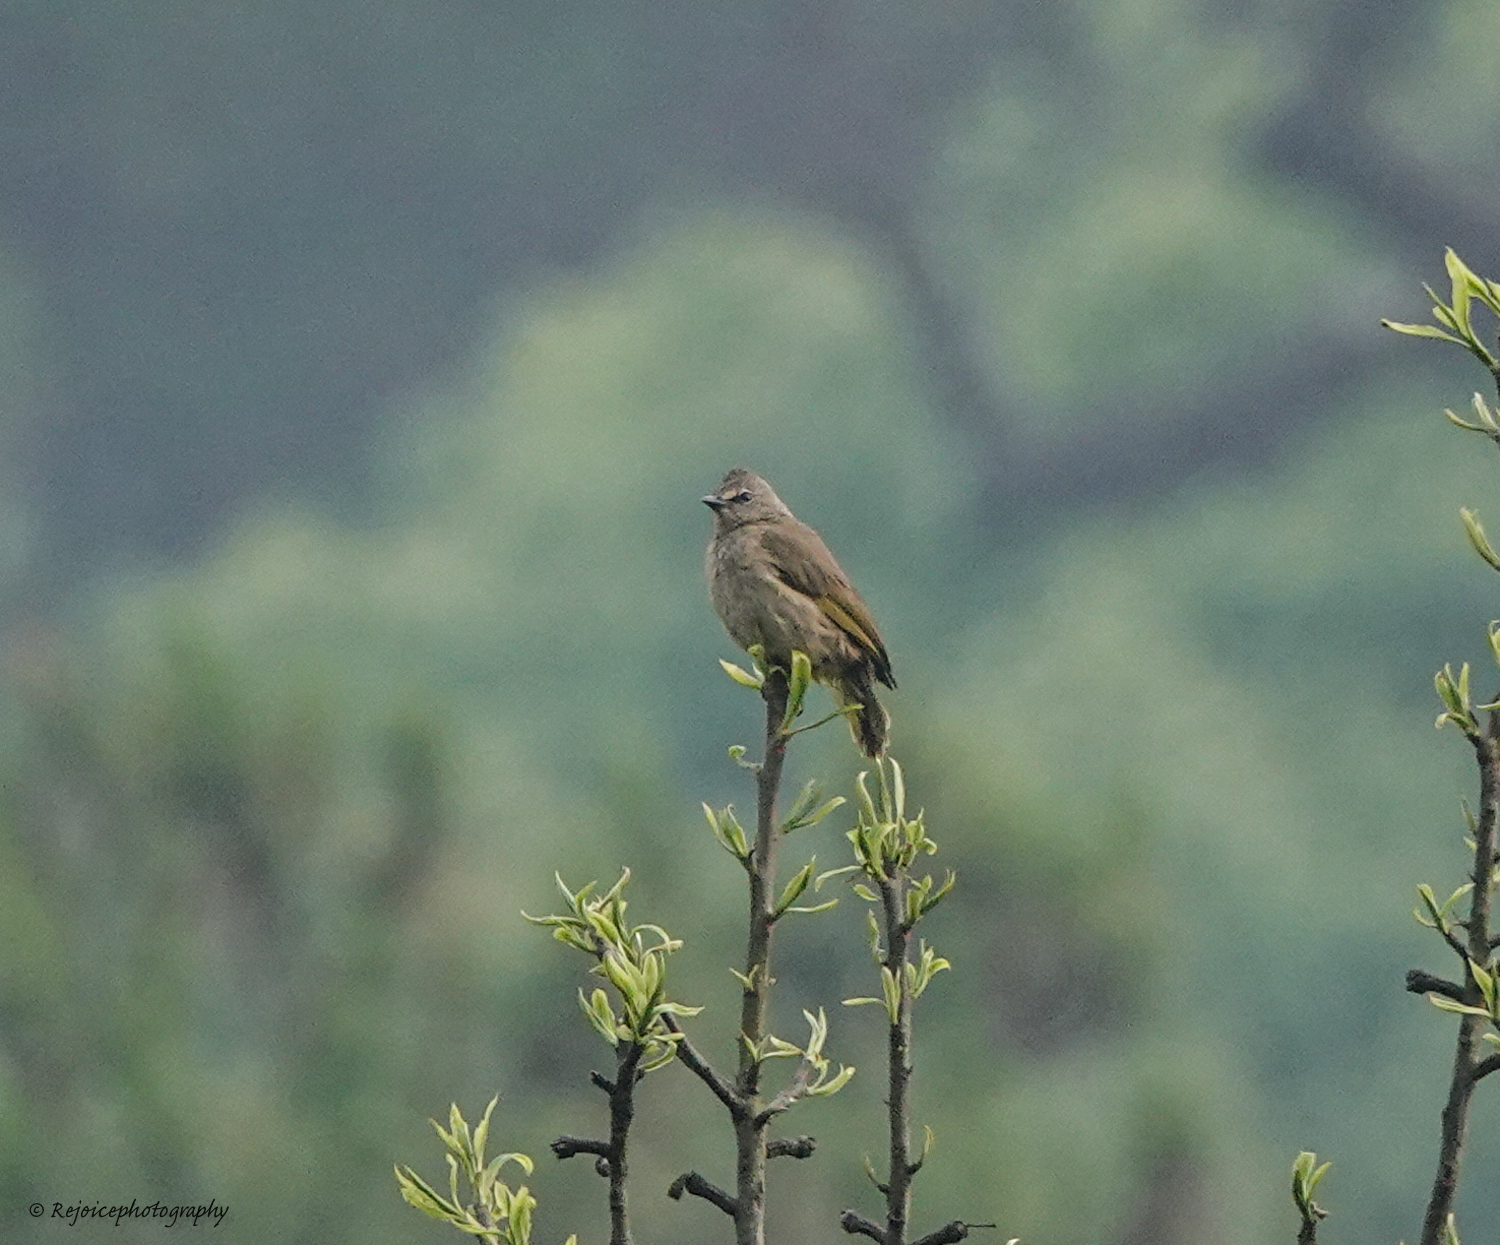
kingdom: Animalia
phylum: Chordata
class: Aves
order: Passeriformes
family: Pycnonotidae
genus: Pycnonotus
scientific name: Pycnonotus flavescens
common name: Flavescent bulbul
